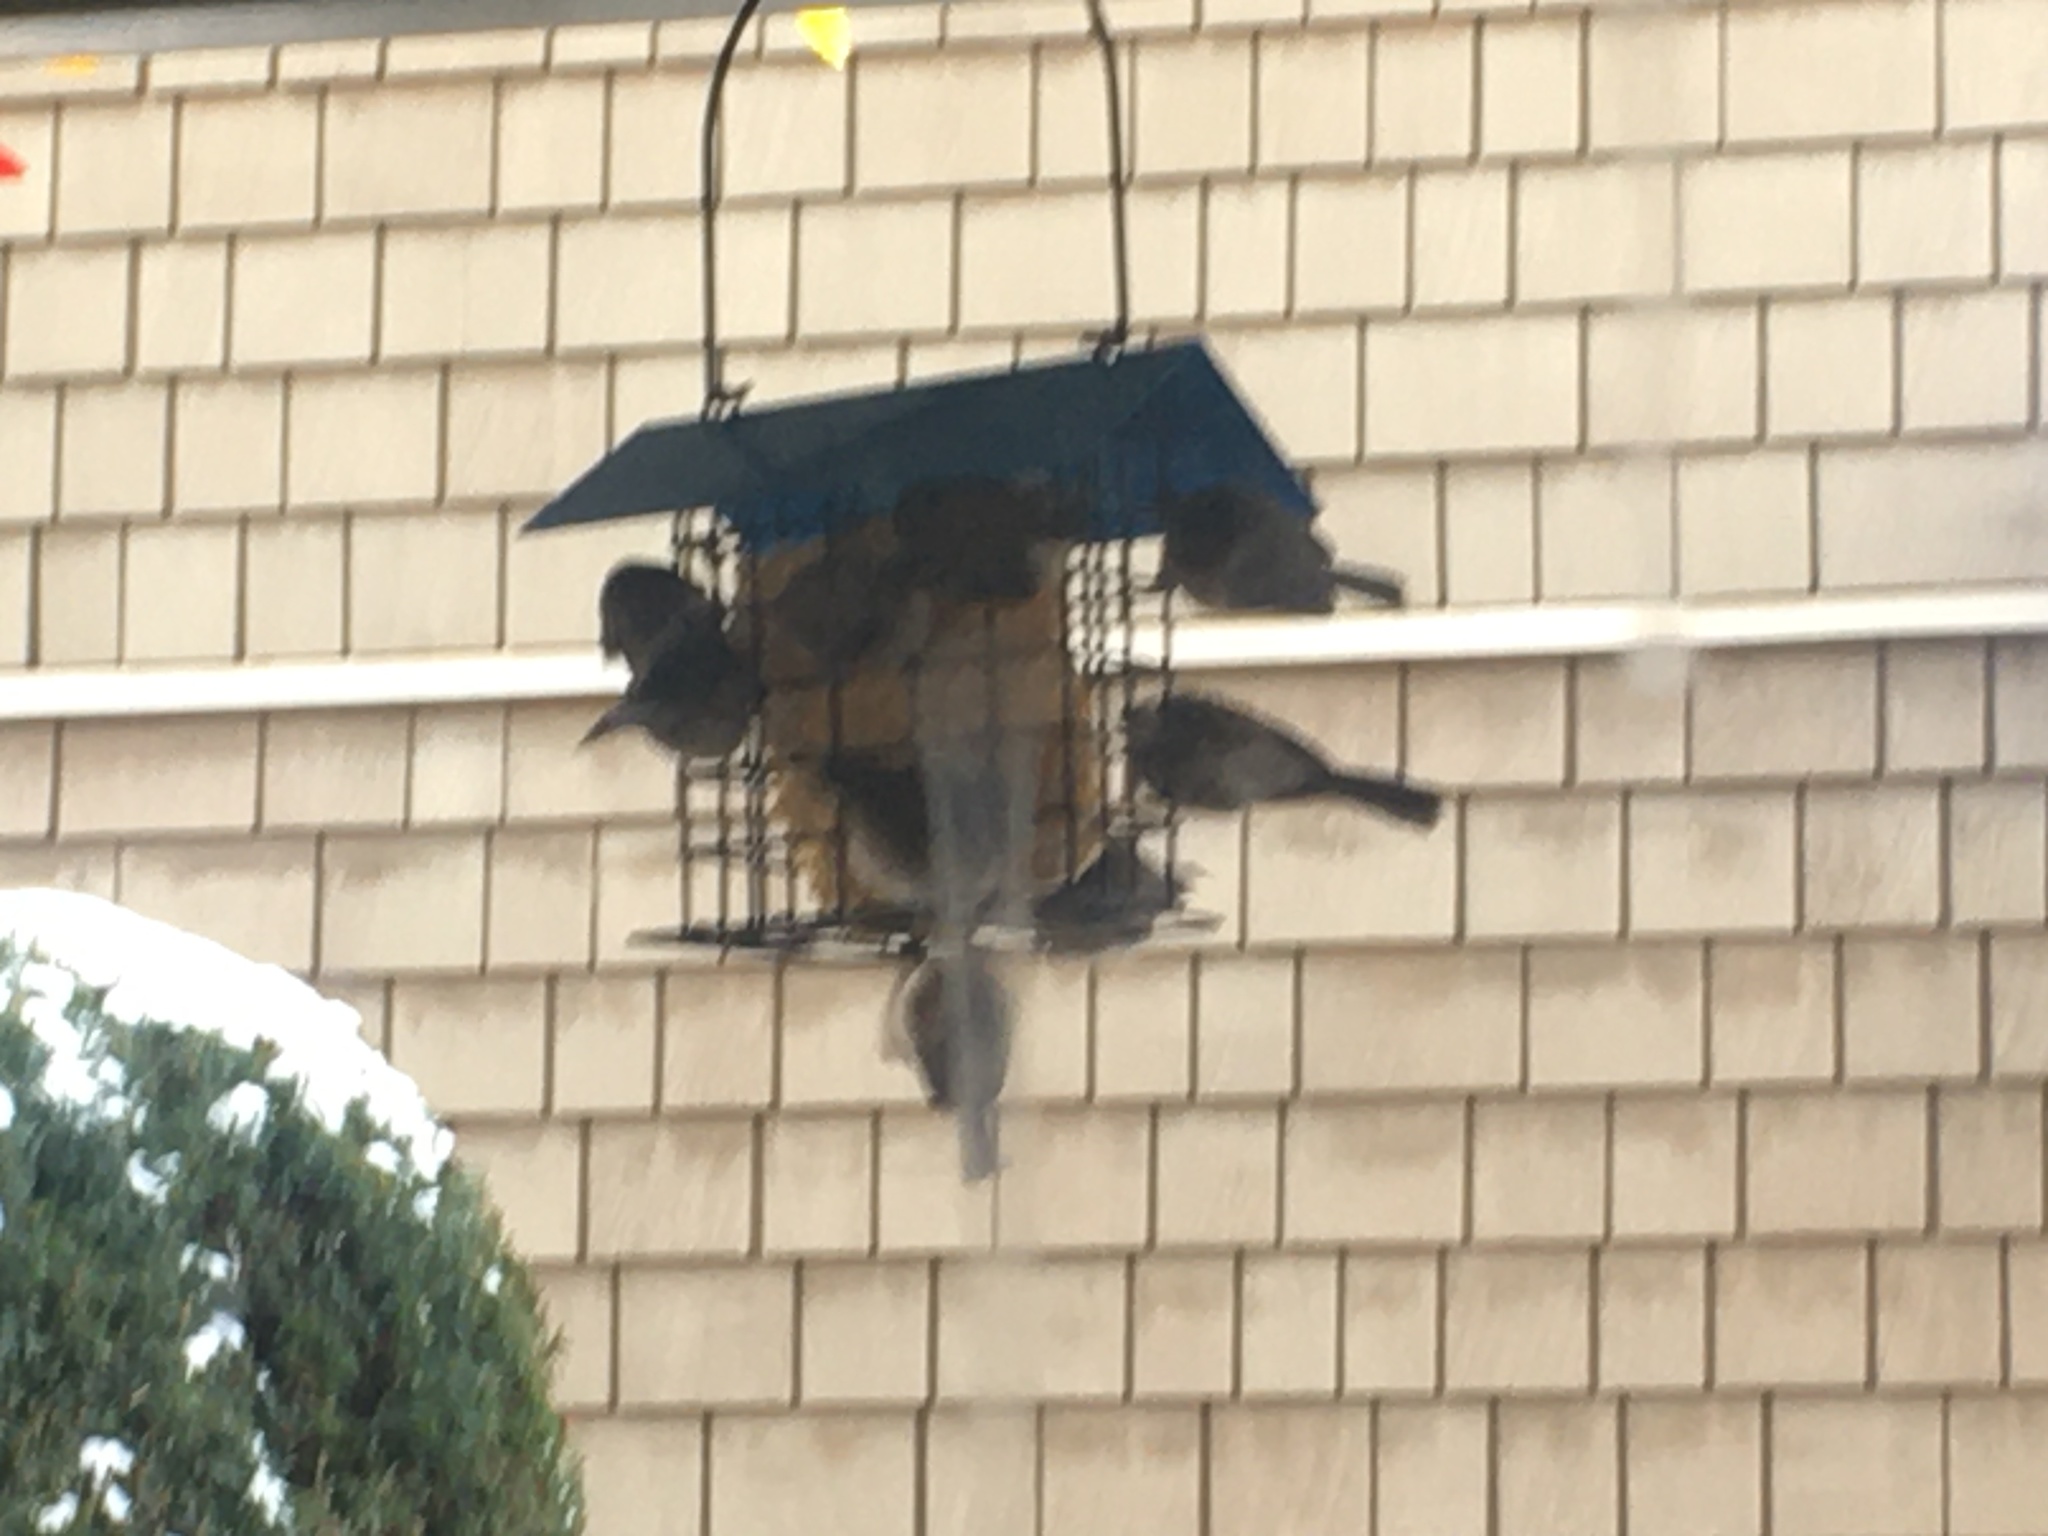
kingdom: Animalia
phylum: Chordata
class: Aves
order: Passeriformes
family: Aegithalidae
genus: Psaltriparus
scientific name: Psaltriparus minimus
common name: American bushtit
